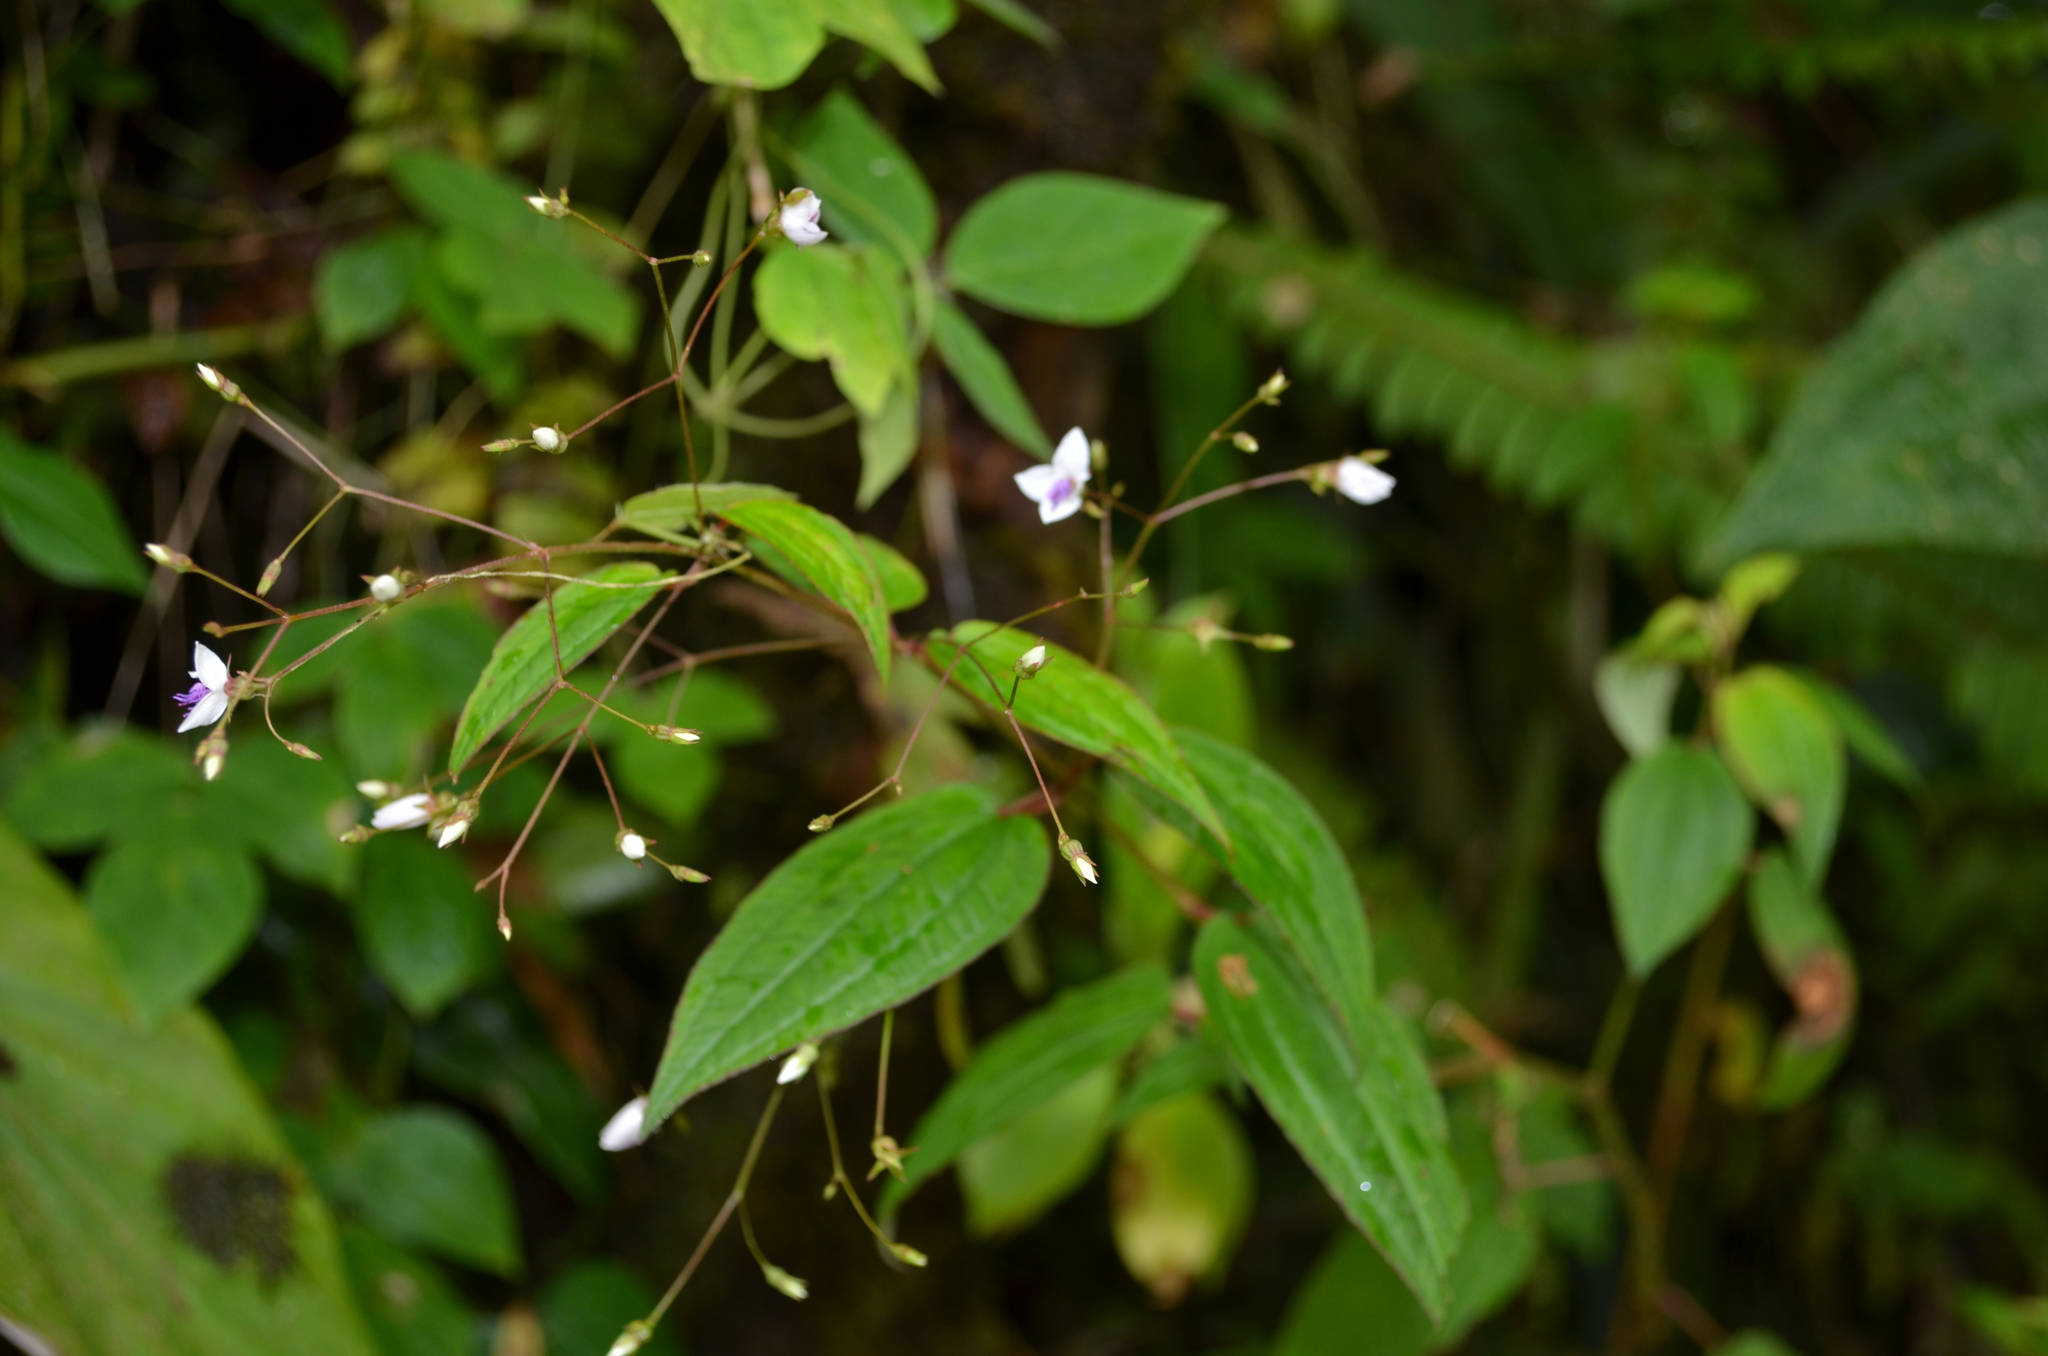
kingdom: Plantae
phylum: Tracheophyta
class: Magnoliopsida
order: Myrtales
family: Melastomataceae
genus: Nepsera
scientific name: Nepsera aquatica
